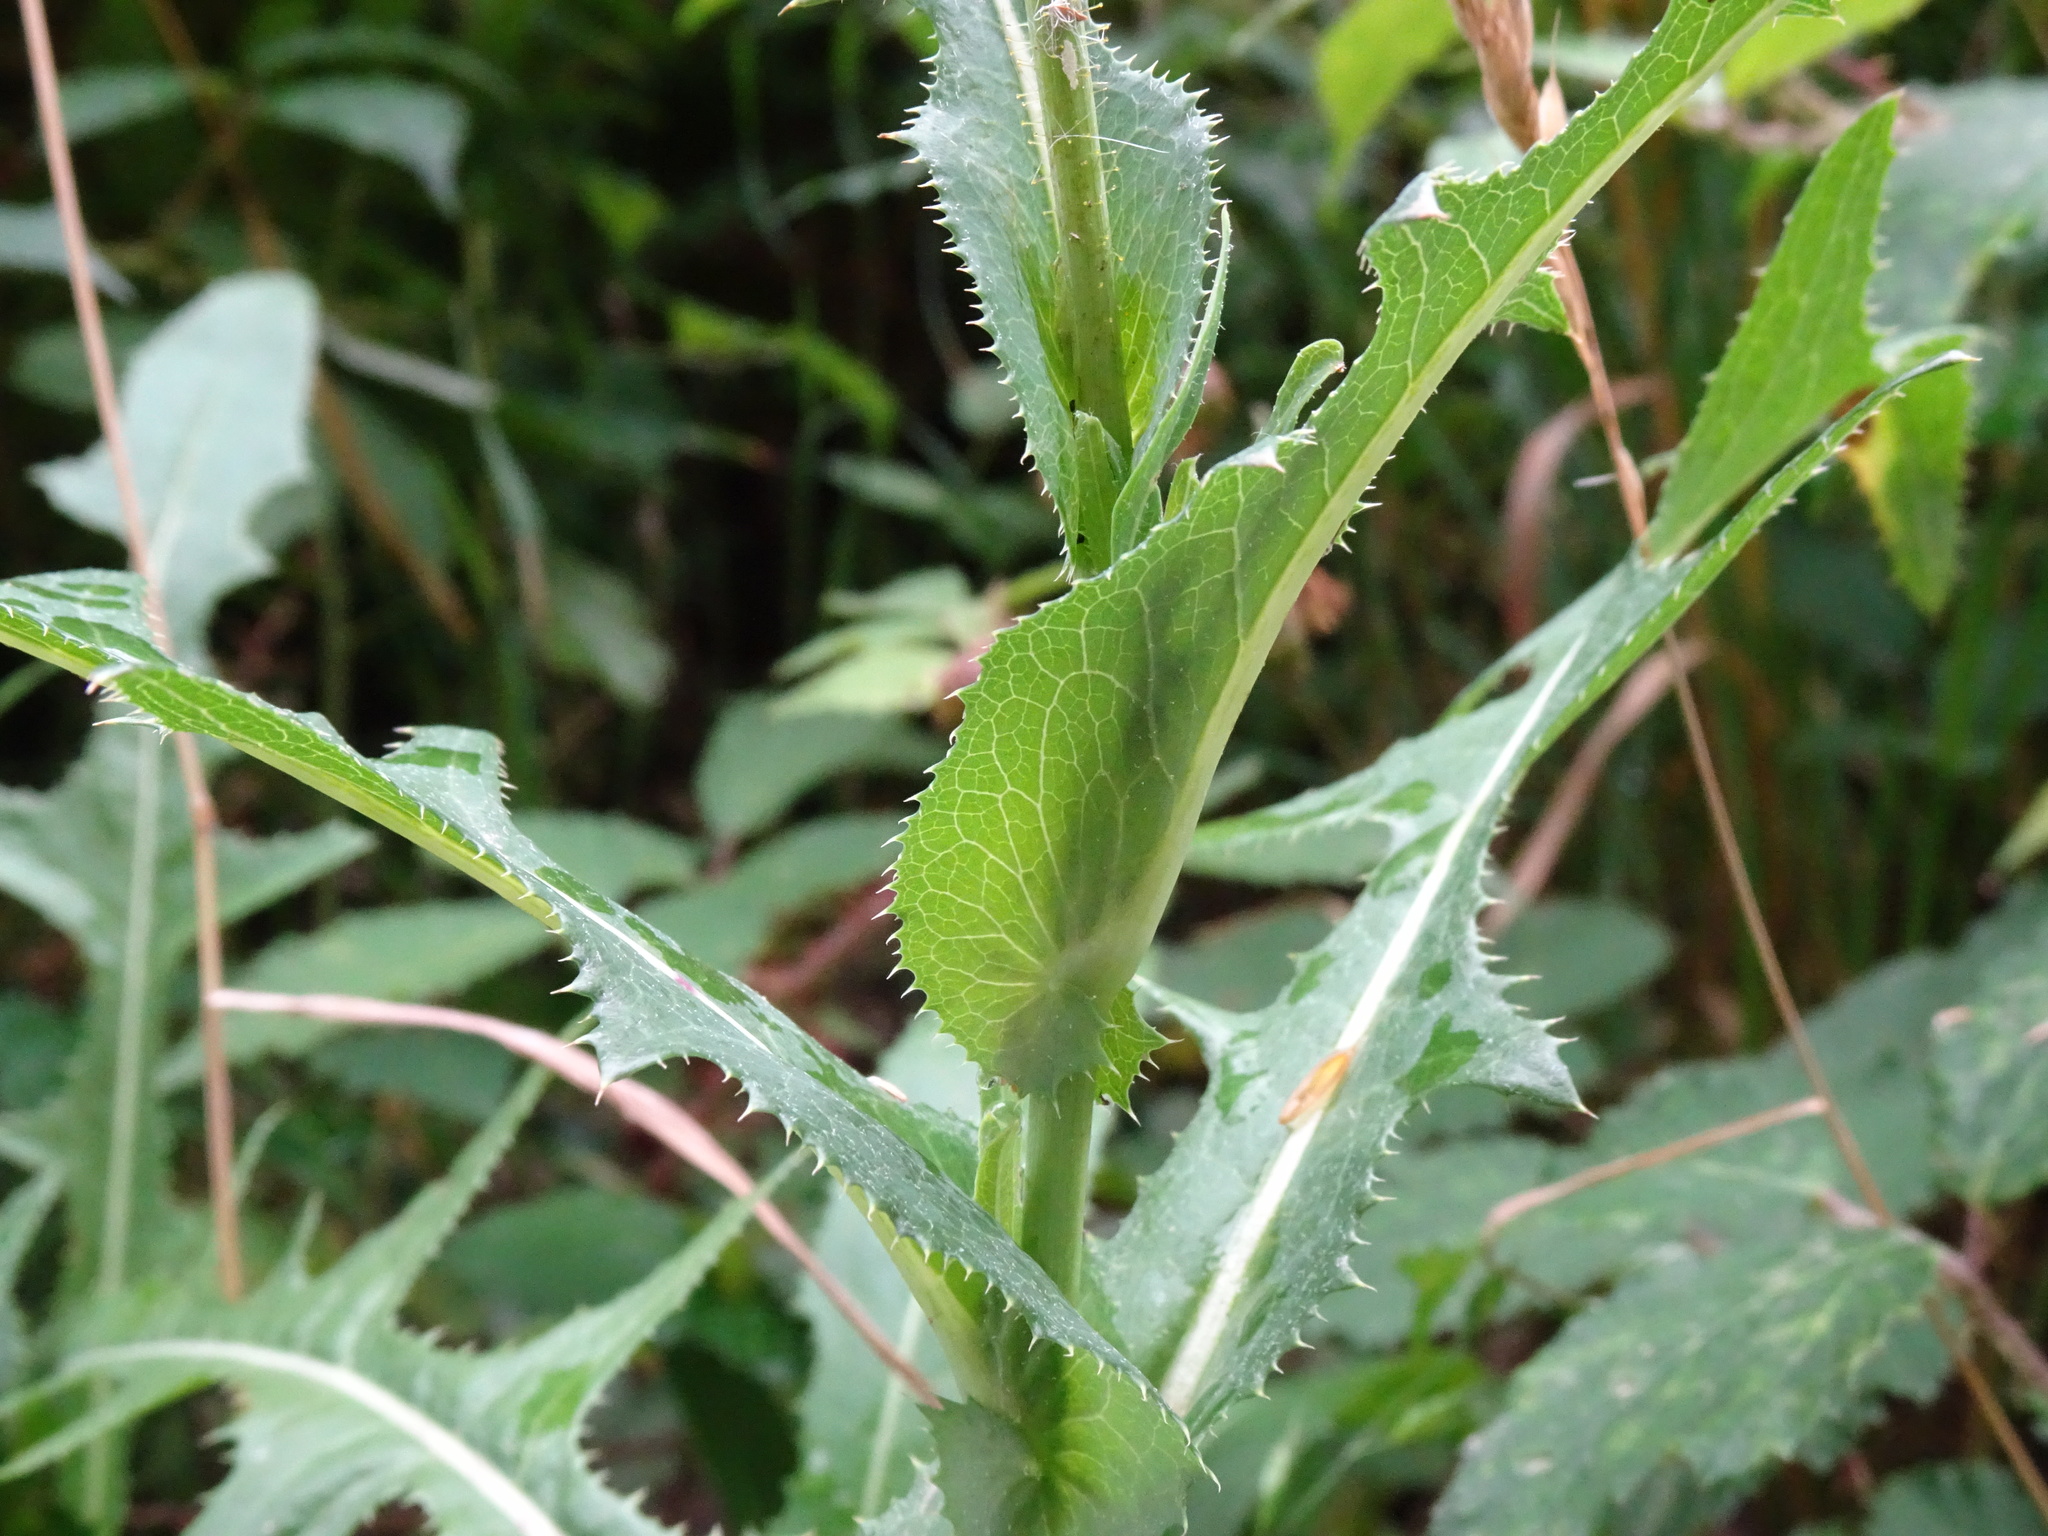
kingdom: Plantae
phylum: Tracheophyta
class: Magnoliopsida
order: Asterales
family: Asteraceae
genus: Sonchus
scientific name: Sonchus arvensis
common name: Perennial sow-thistle
